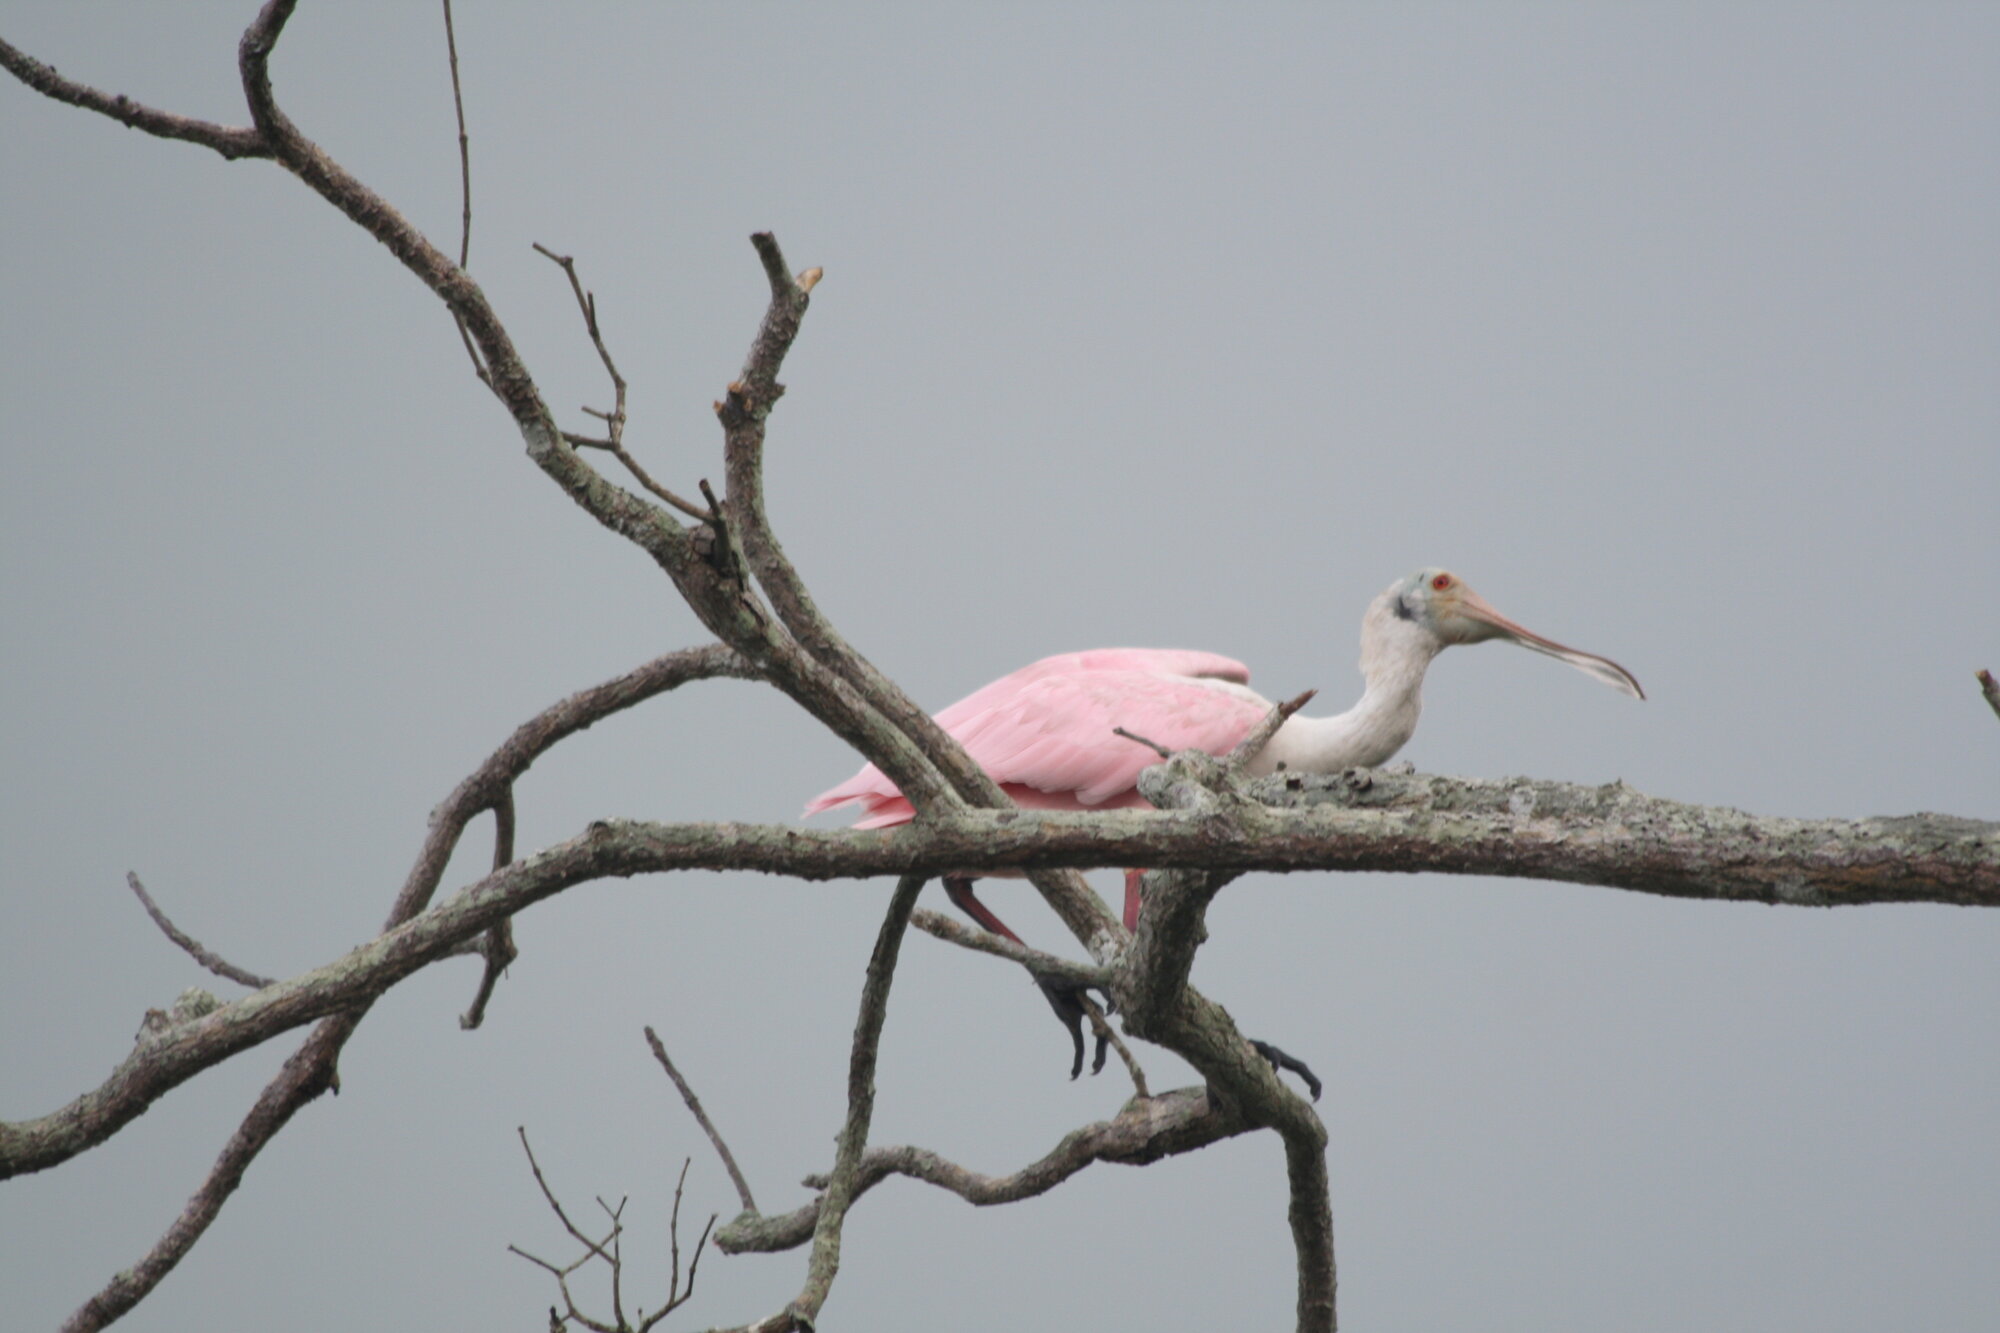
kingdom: Animalia
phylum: Chordata
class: Aves
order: Pelecaniformes
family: Threskiornithidae
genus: Platalea
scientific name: Platalea ajaja
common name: Roseate spoonbill
